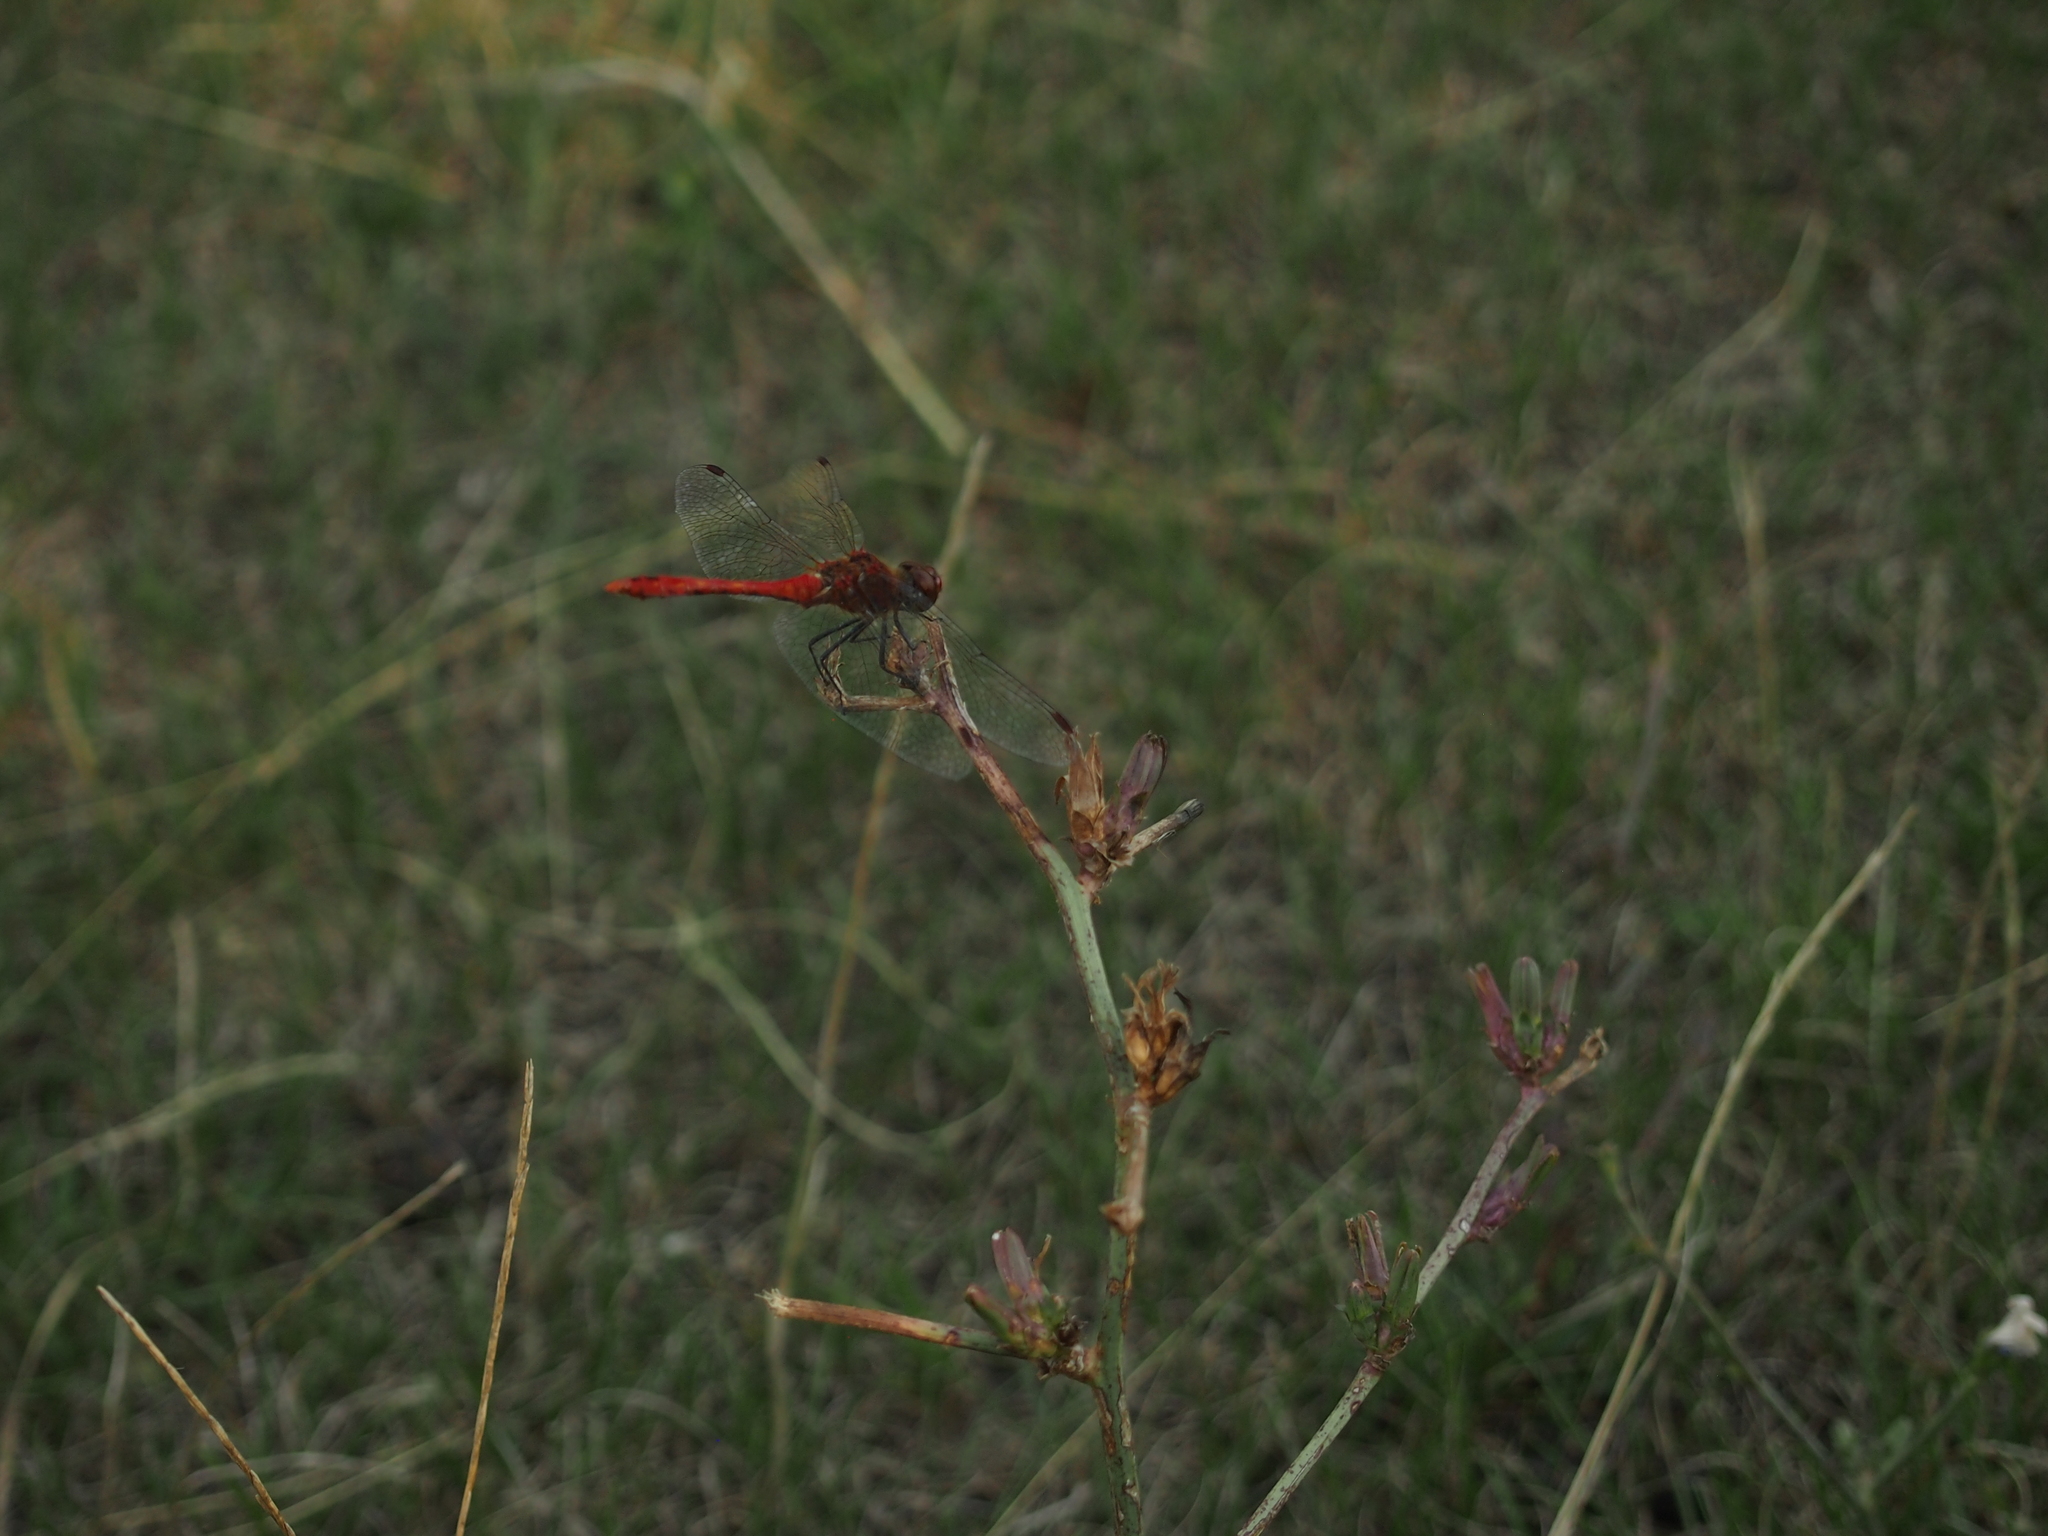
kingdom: Animalia
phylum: Arthropoda
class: Insecta
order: Odonata
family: Libellulidae
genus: Sympetrum
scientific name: Sympetrum sanguineum
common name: Ruddy darter
